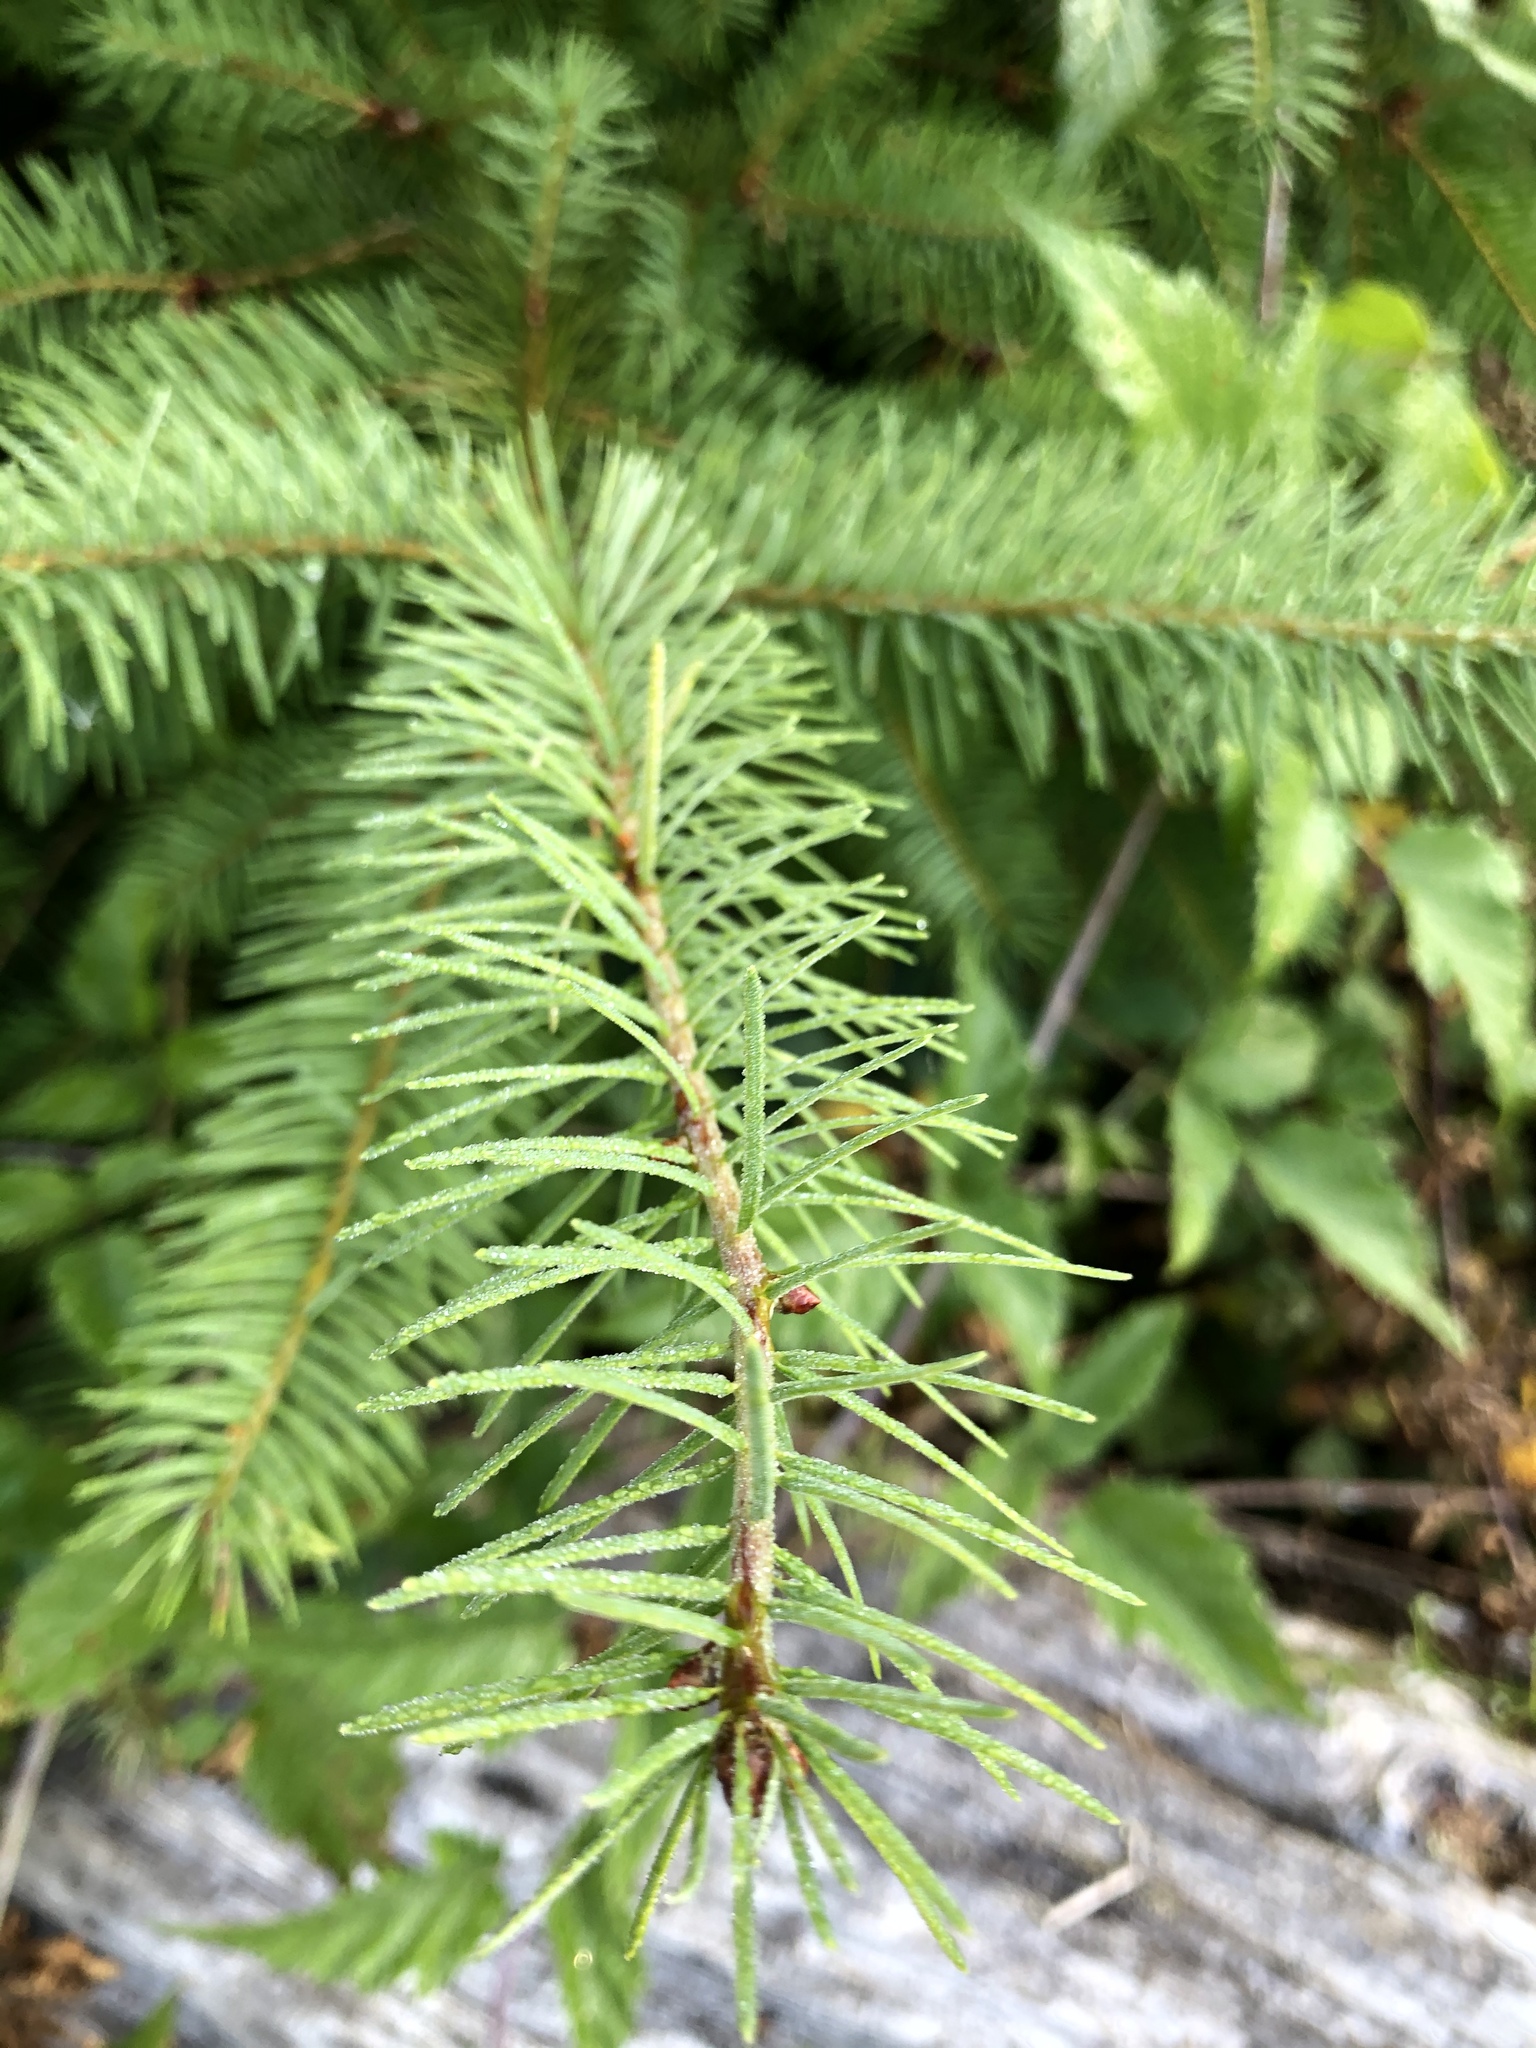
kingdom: Plantae
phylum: Tracheophyta
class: Pinopsida
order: Pinales
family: Pinaceae
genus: Pseudotsuga
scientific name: Pseudotsuga menziesii
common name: Douglas fir
